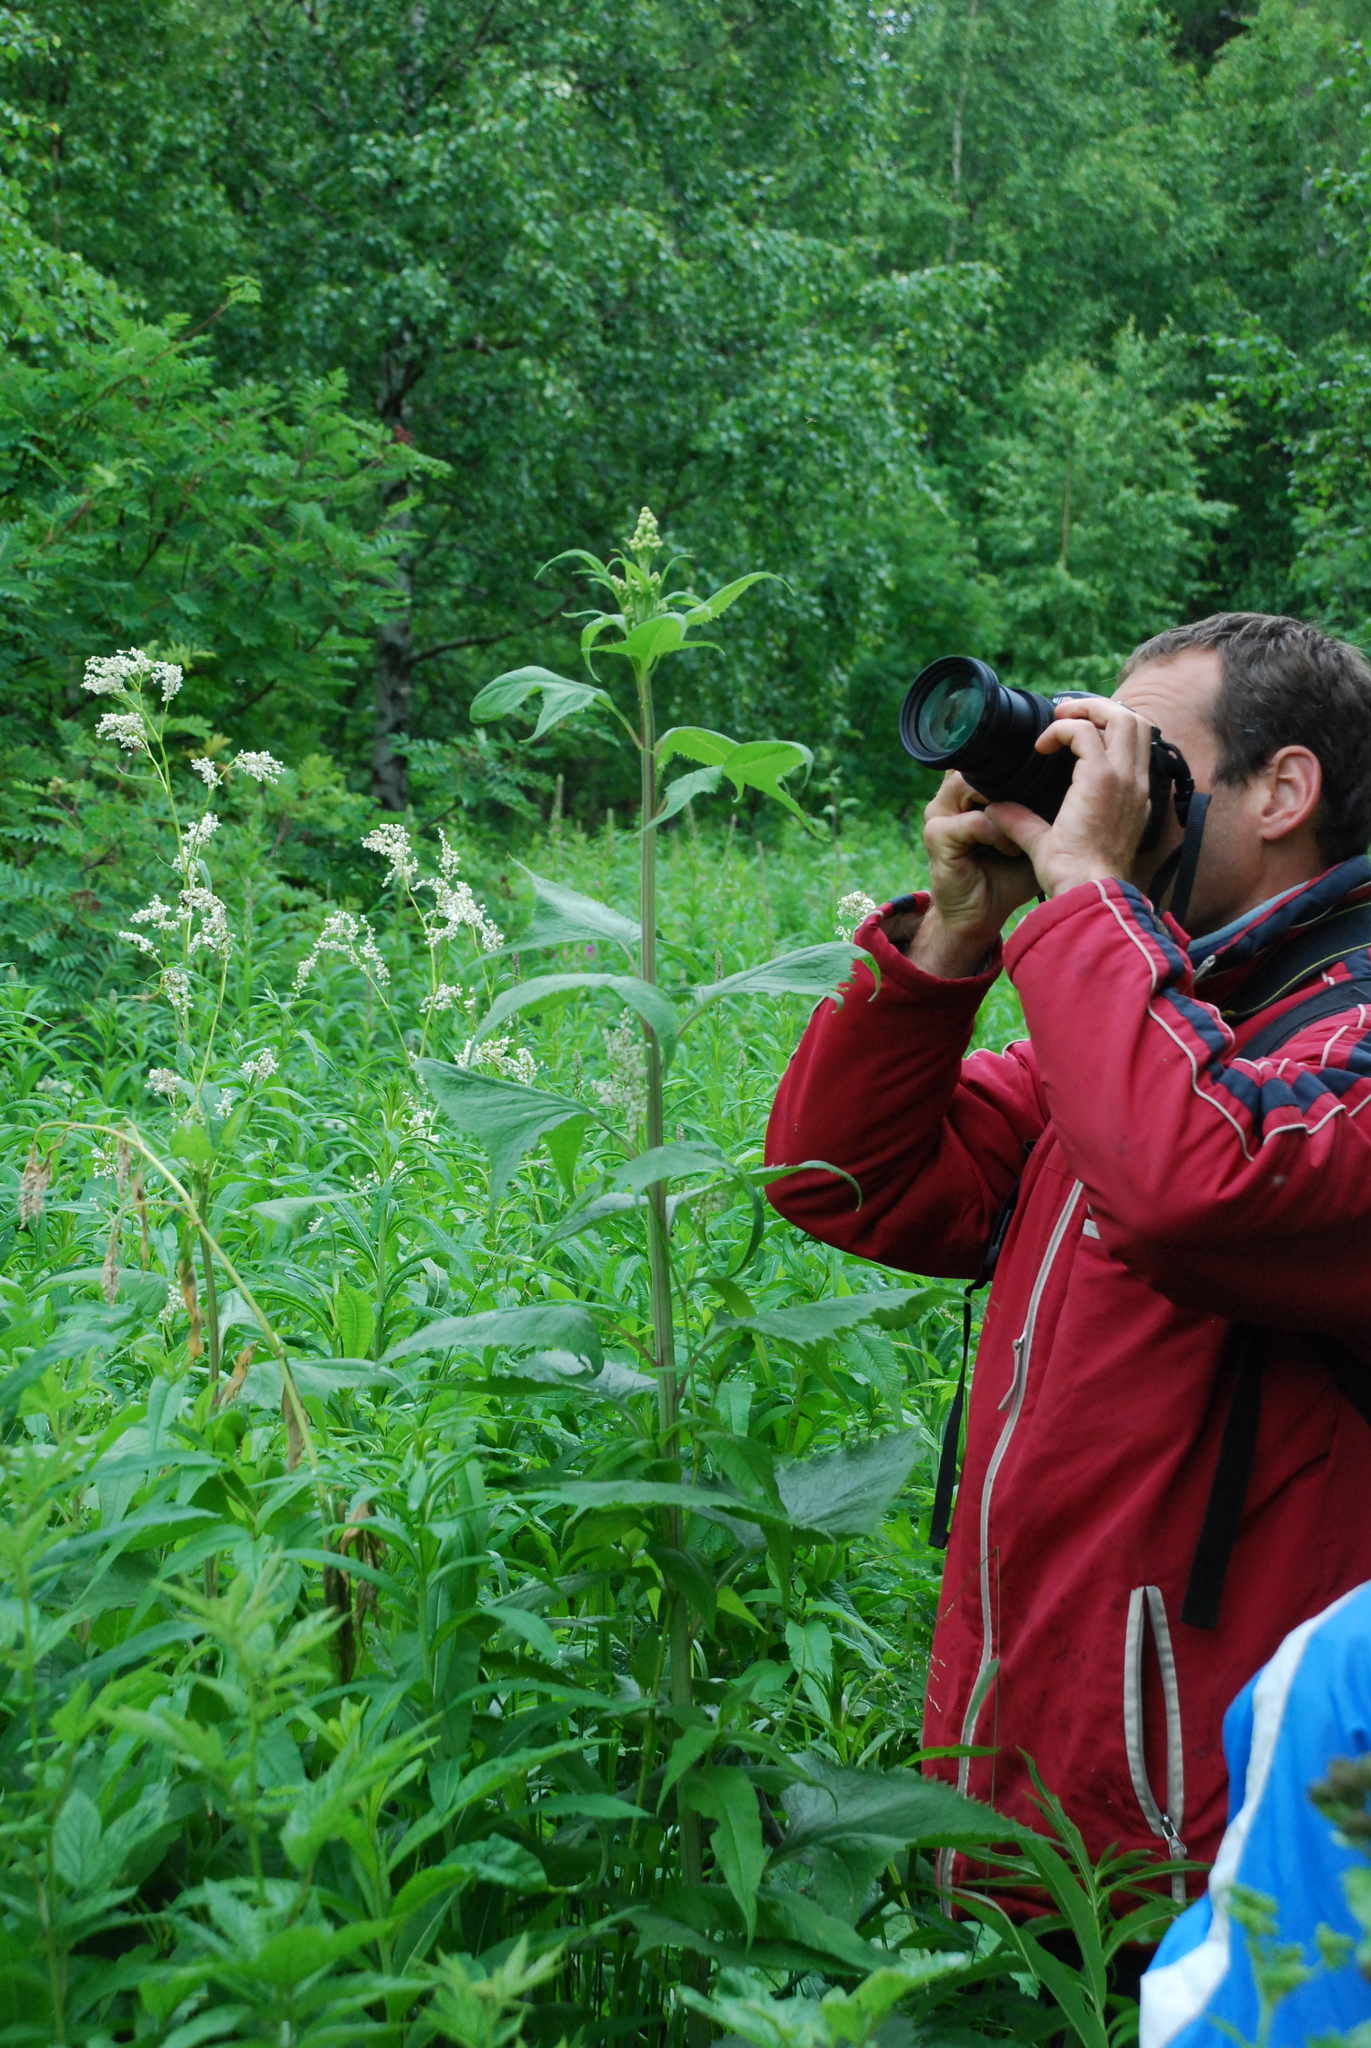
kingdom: Plantae
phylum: Tracheophyta
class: Magnoliopsida
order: Asterales
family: Asteraceae
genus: Parasenecio
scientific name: Parasenecio hastatus
